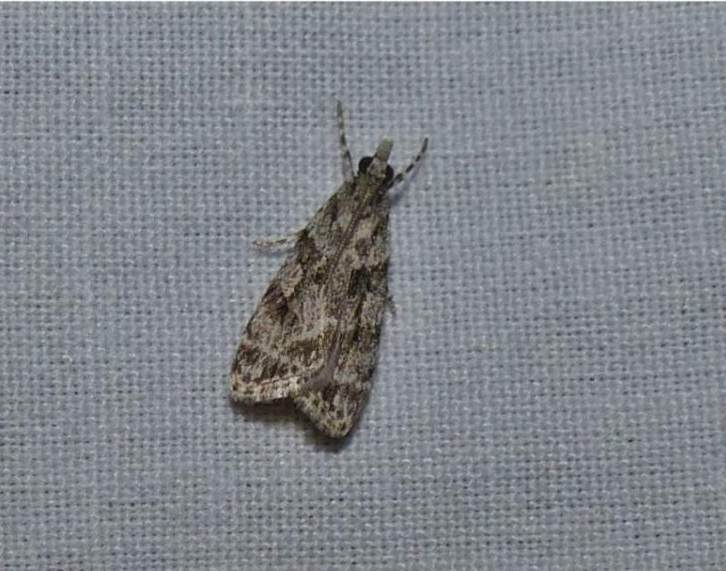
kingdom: Animalia
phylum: Arthropoda
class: Insecta
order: Lepidoptera
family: Crambidae
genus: Scoparia
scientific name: Scoparia biplagialis
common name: Double-striped scoparia moth
